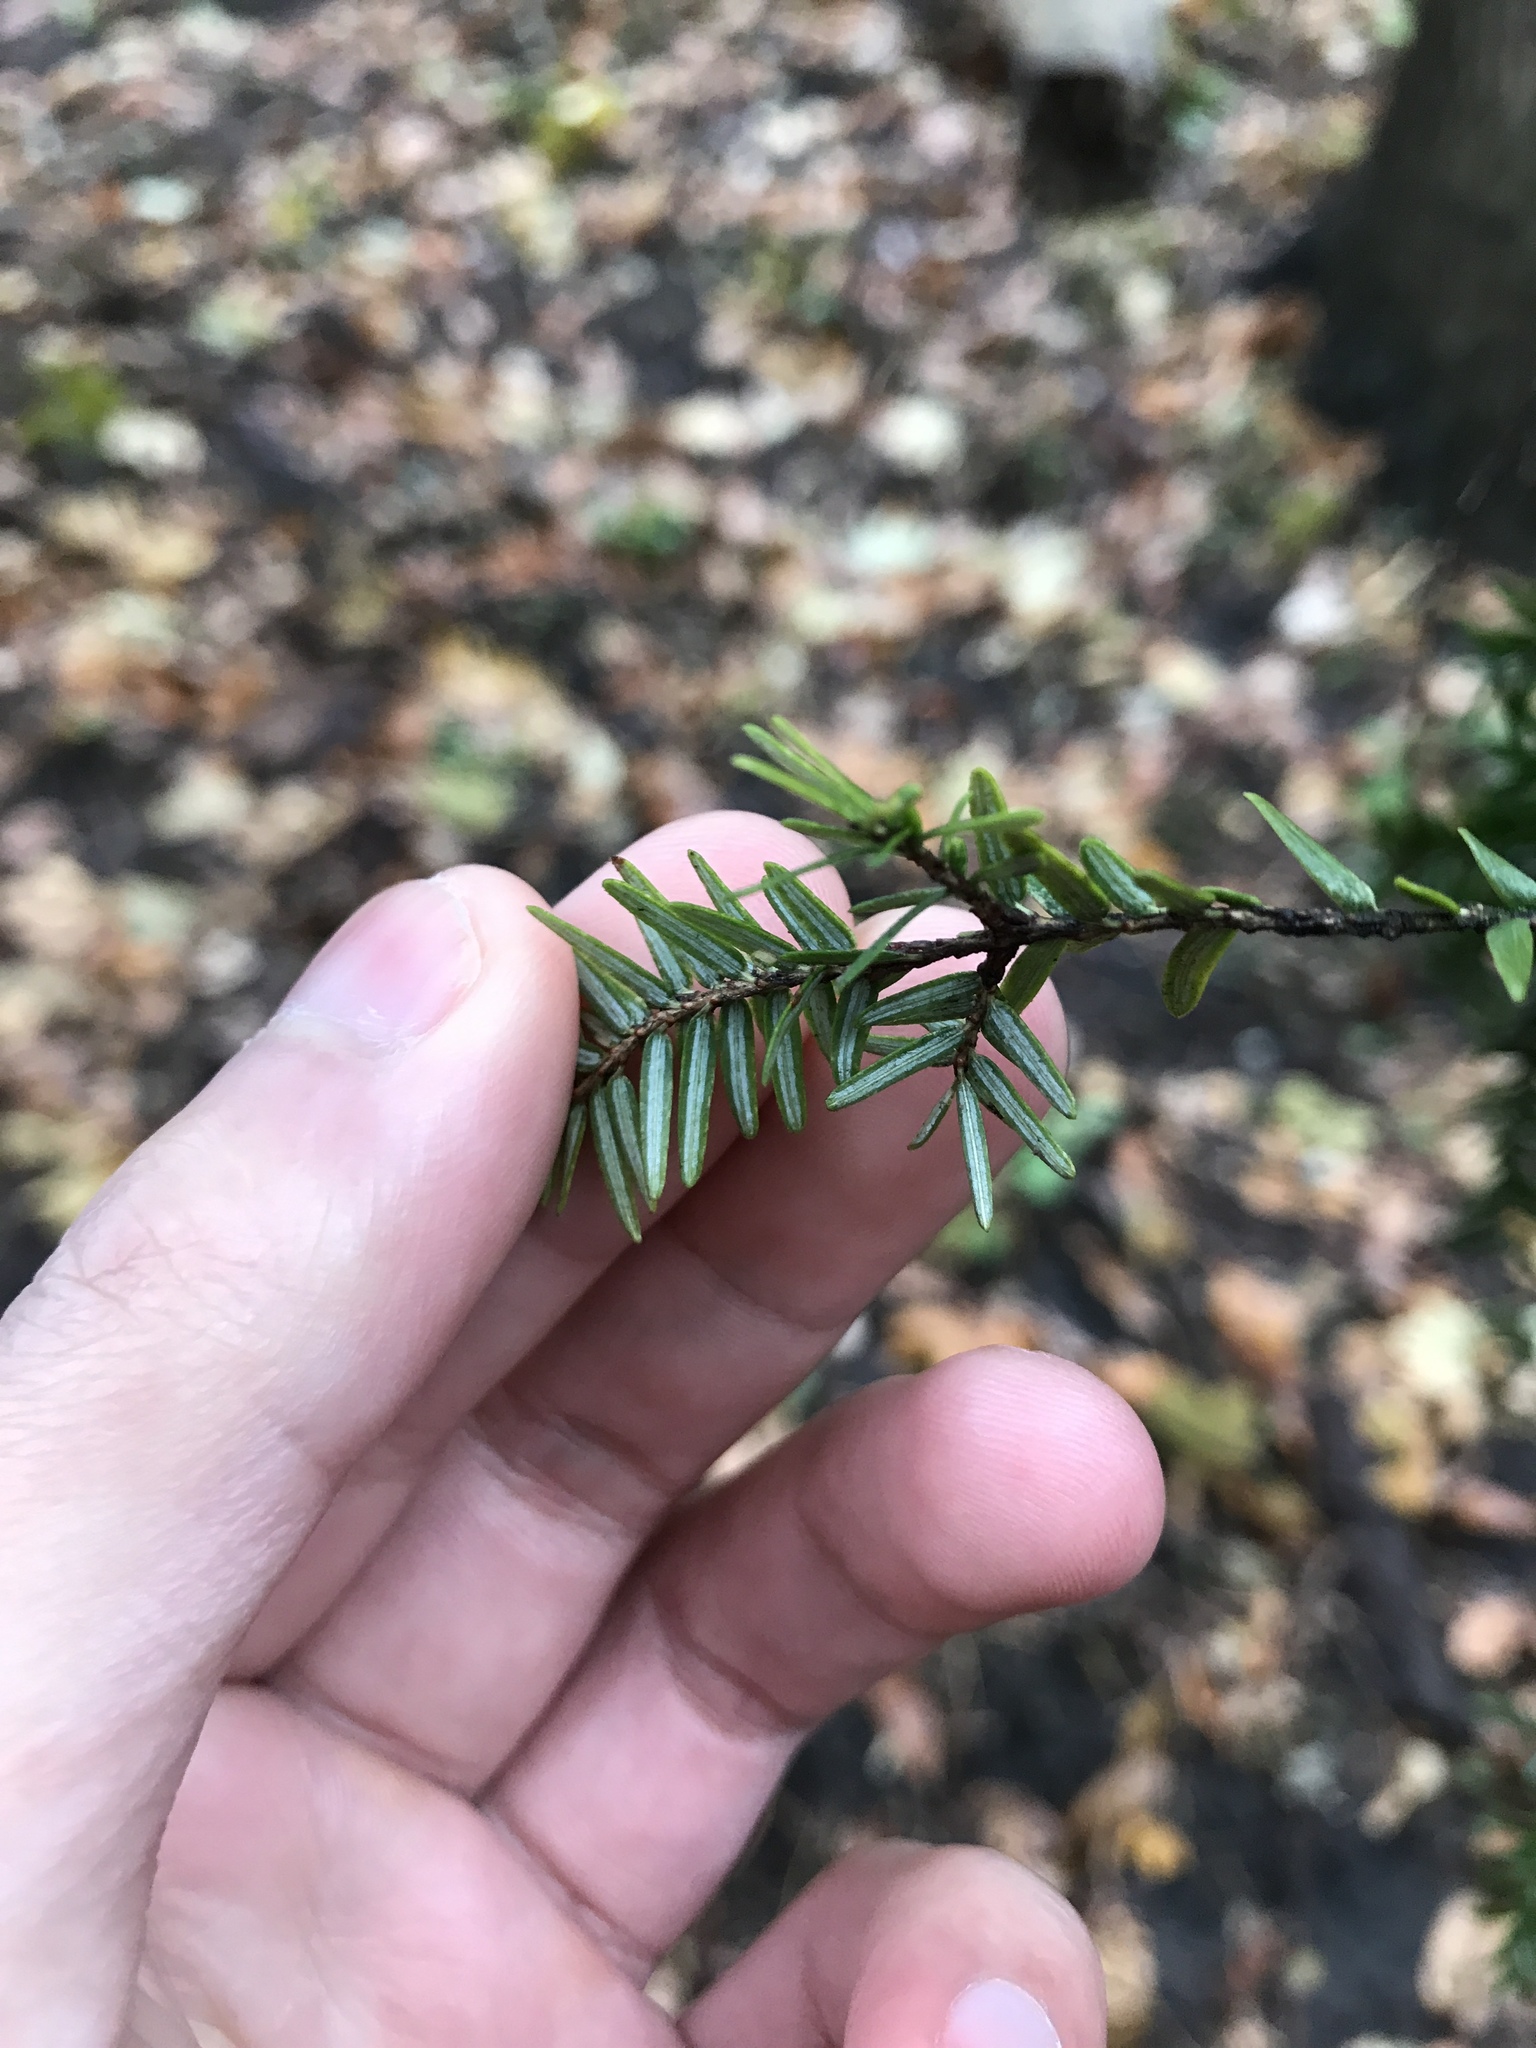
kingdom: Plantae
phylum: Tracheophyta
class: Pinopsida
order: Pinales
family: Pinaceae
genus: Tsuga
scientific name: Tsuga canadensis
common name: Eastern hemlock
